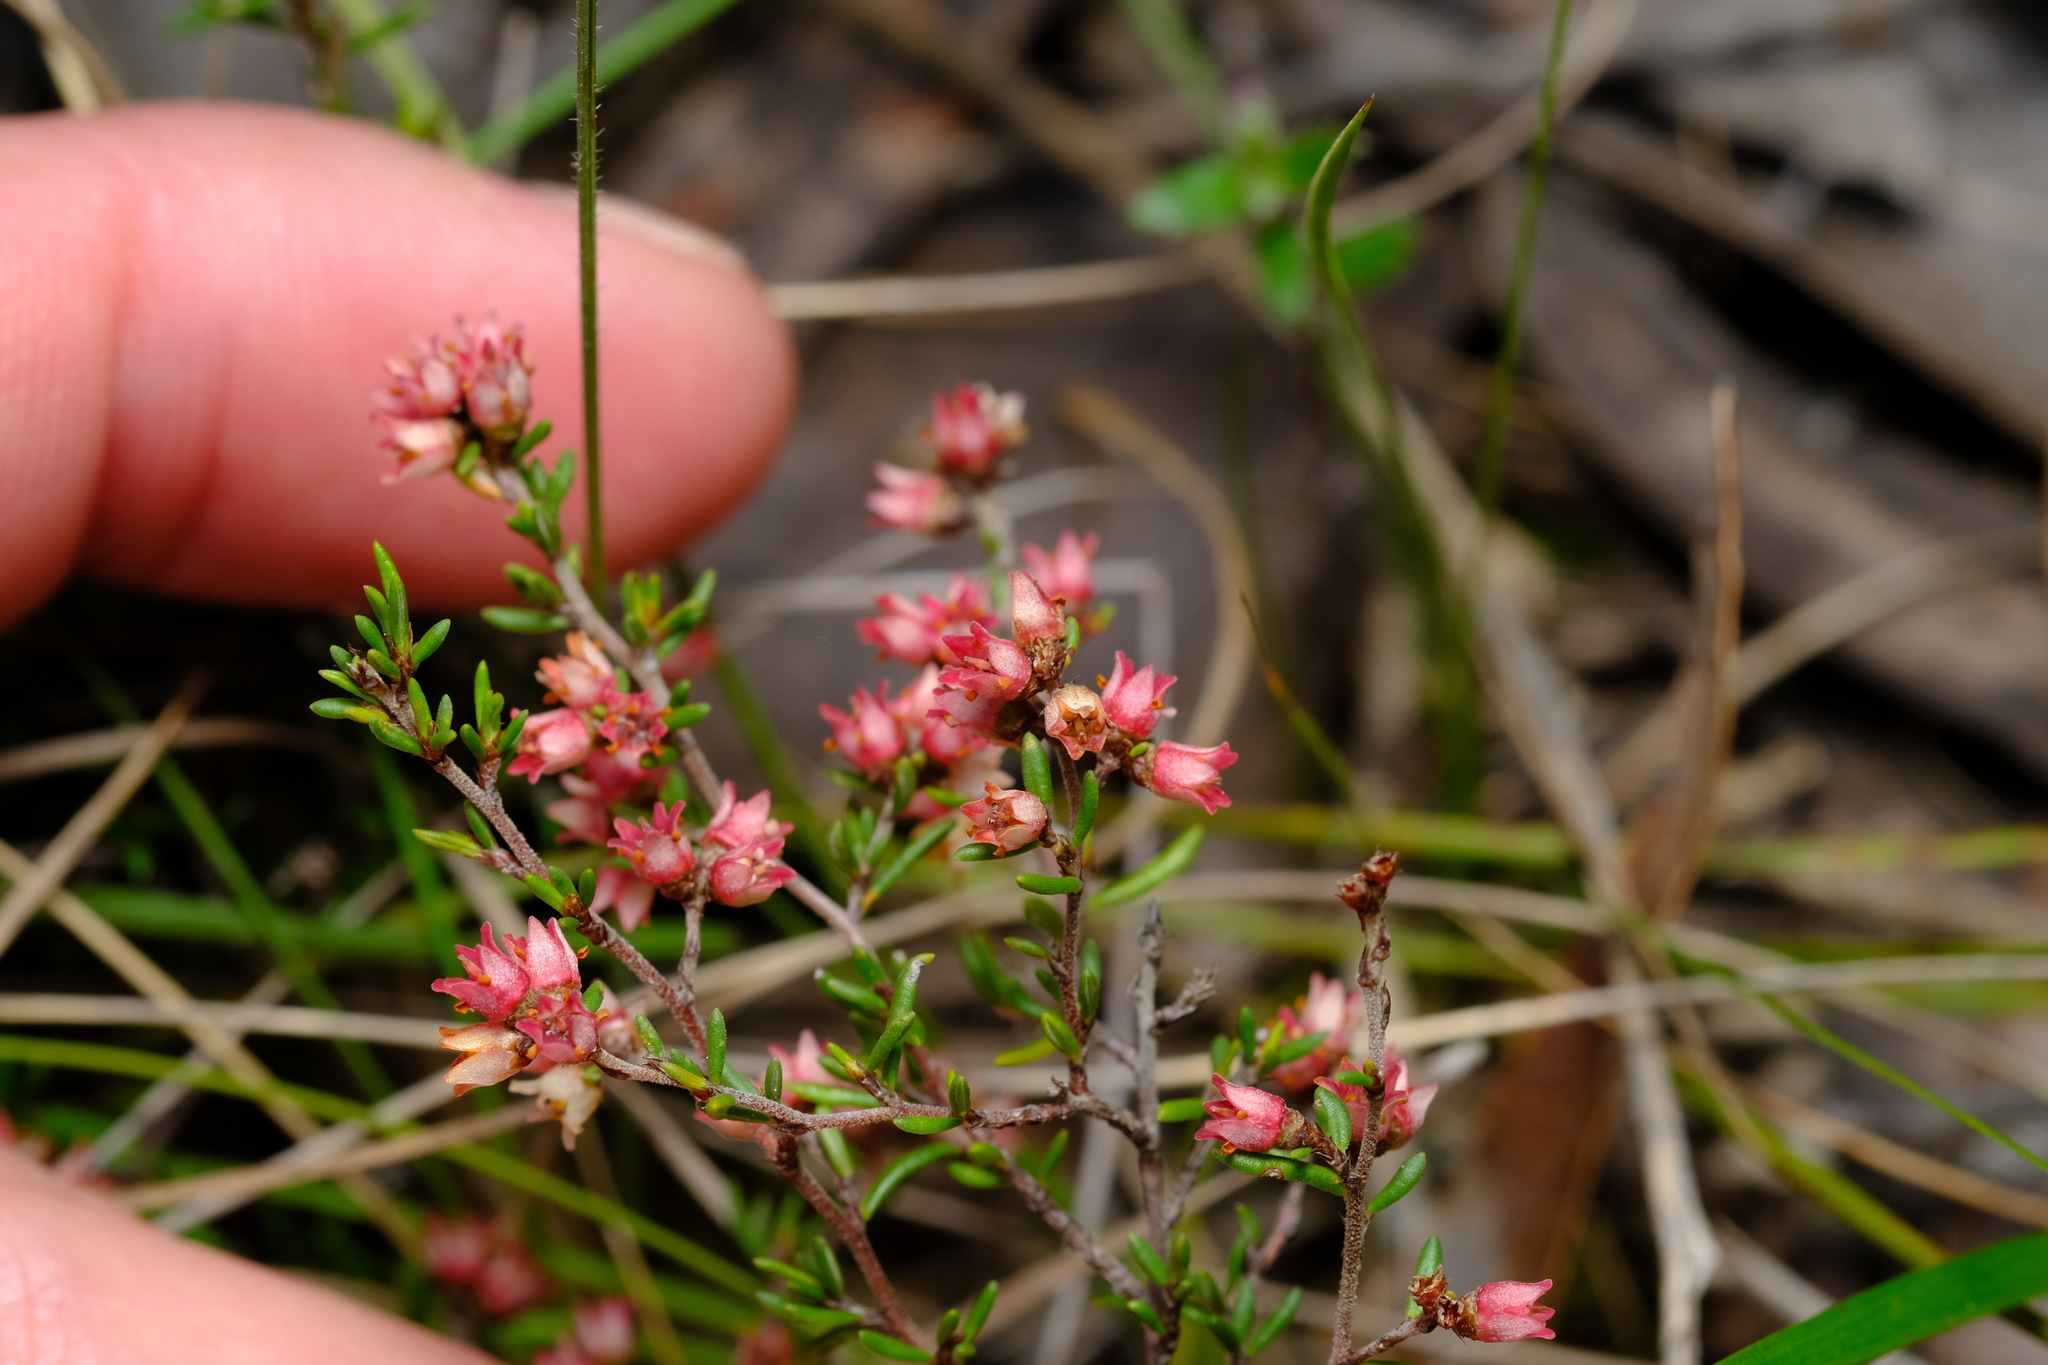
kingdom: Plantae
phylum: Tracheophyta
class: Magnoliopsida
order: Rosales
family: Rhamnaceae
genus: Cryptandra
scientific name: Cryptandra tomentosa
